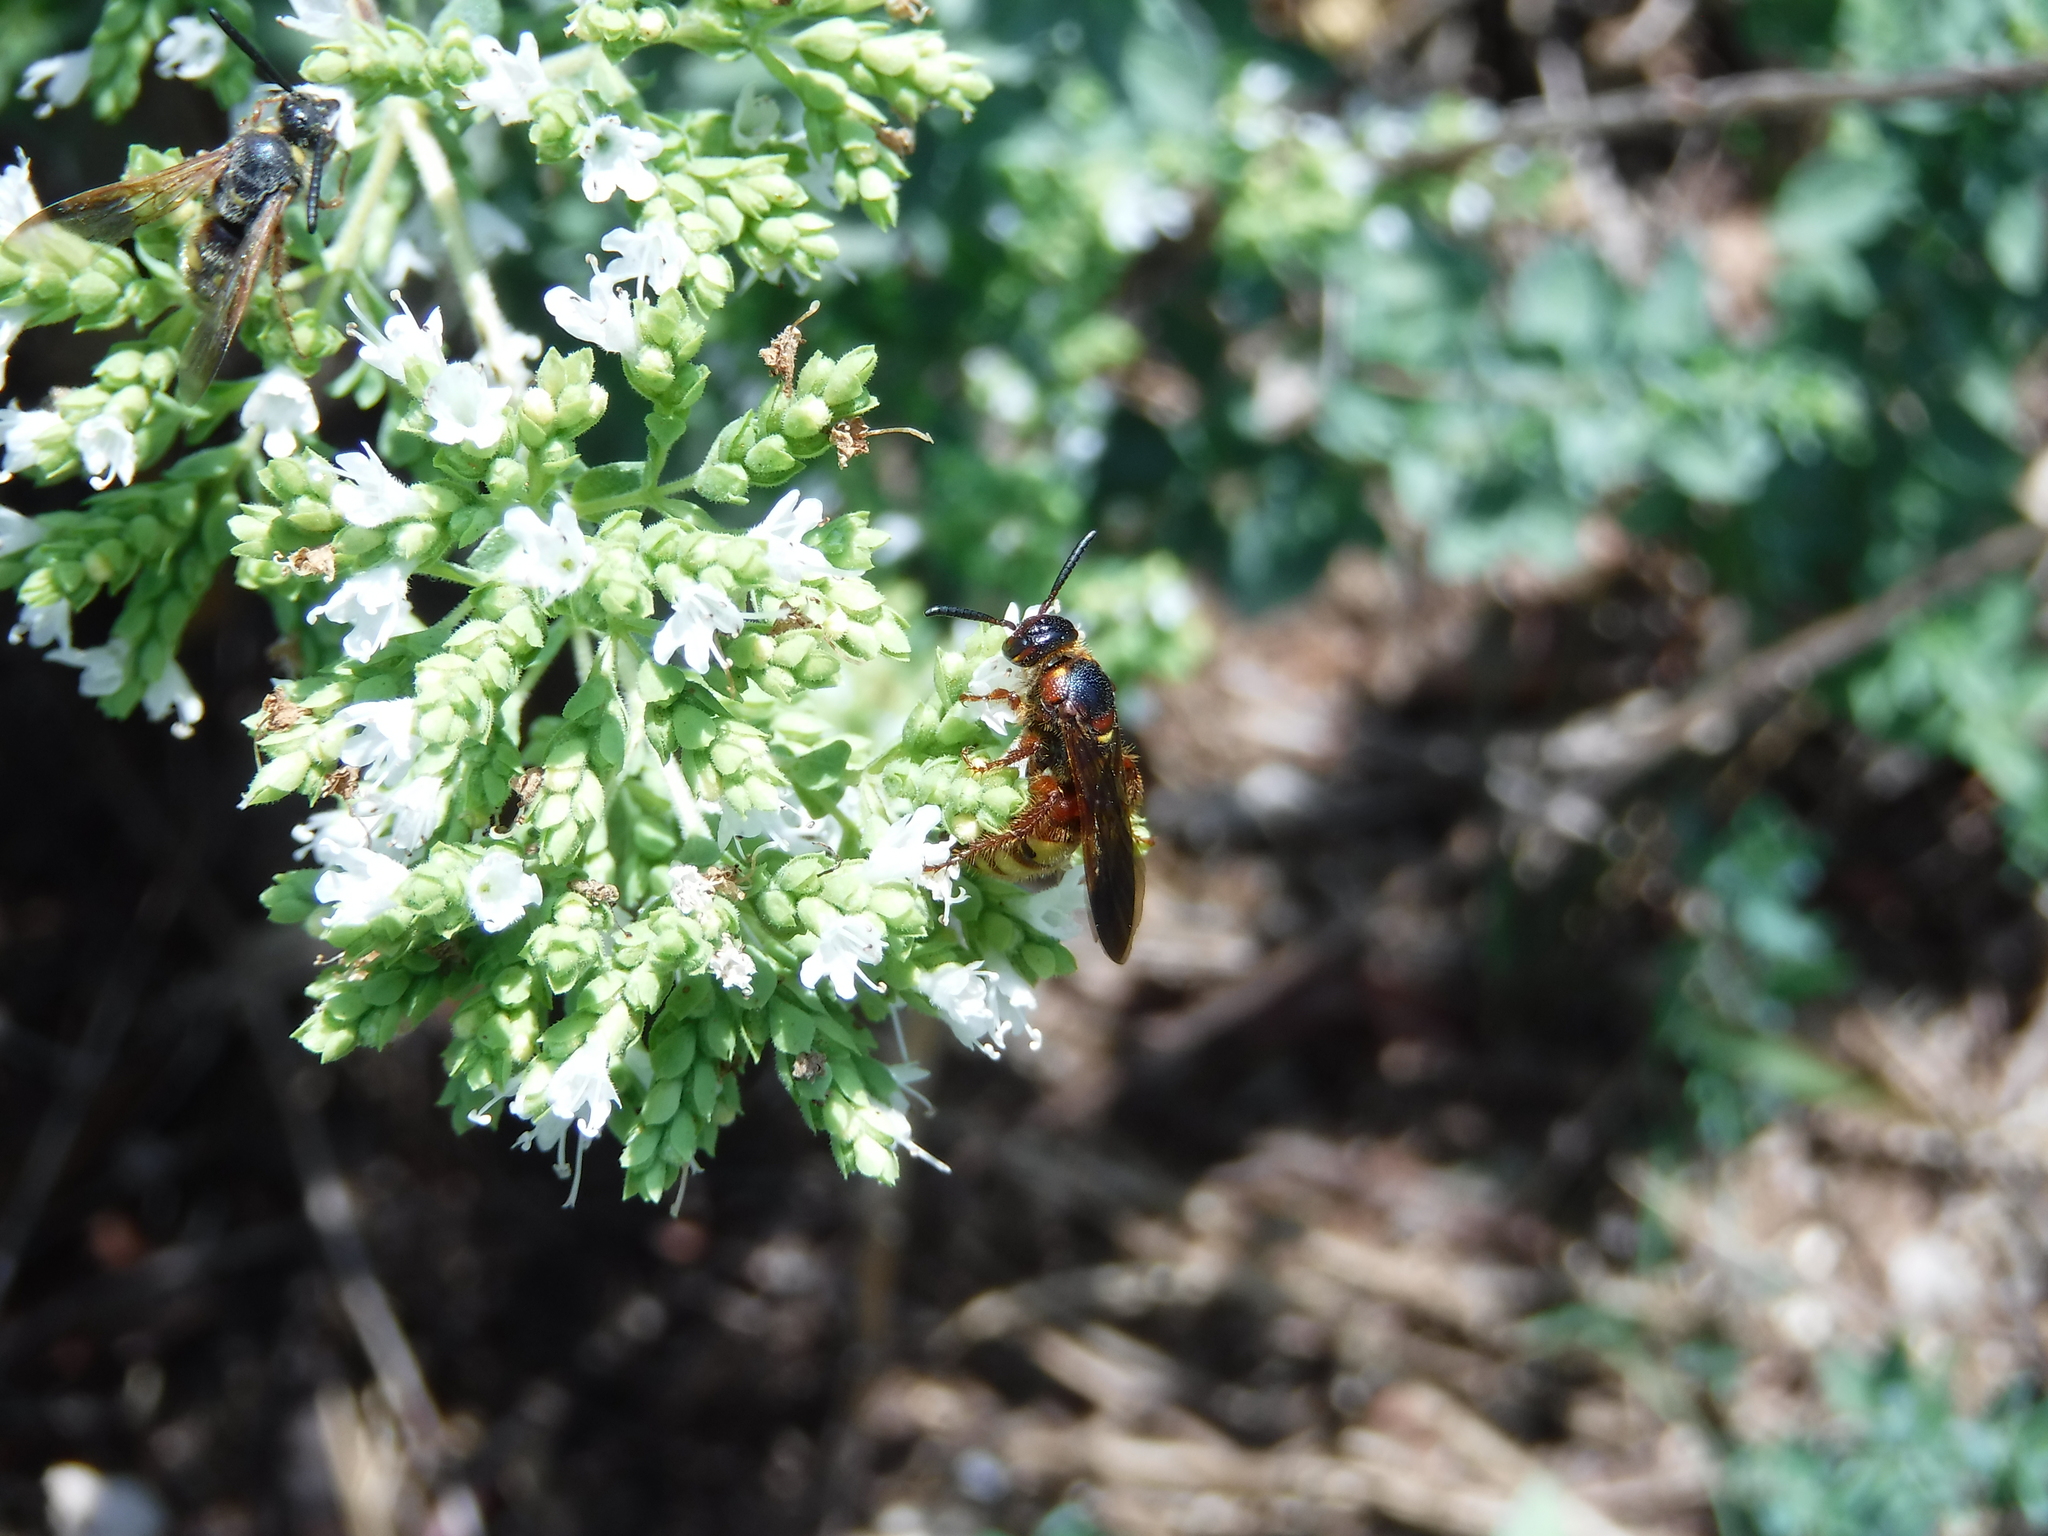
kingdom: Animalia
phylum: Arthropoda
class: Insecta
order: Hymenoptera
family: Scoliidae
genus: Scolia
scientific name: Scolia nobilitata
